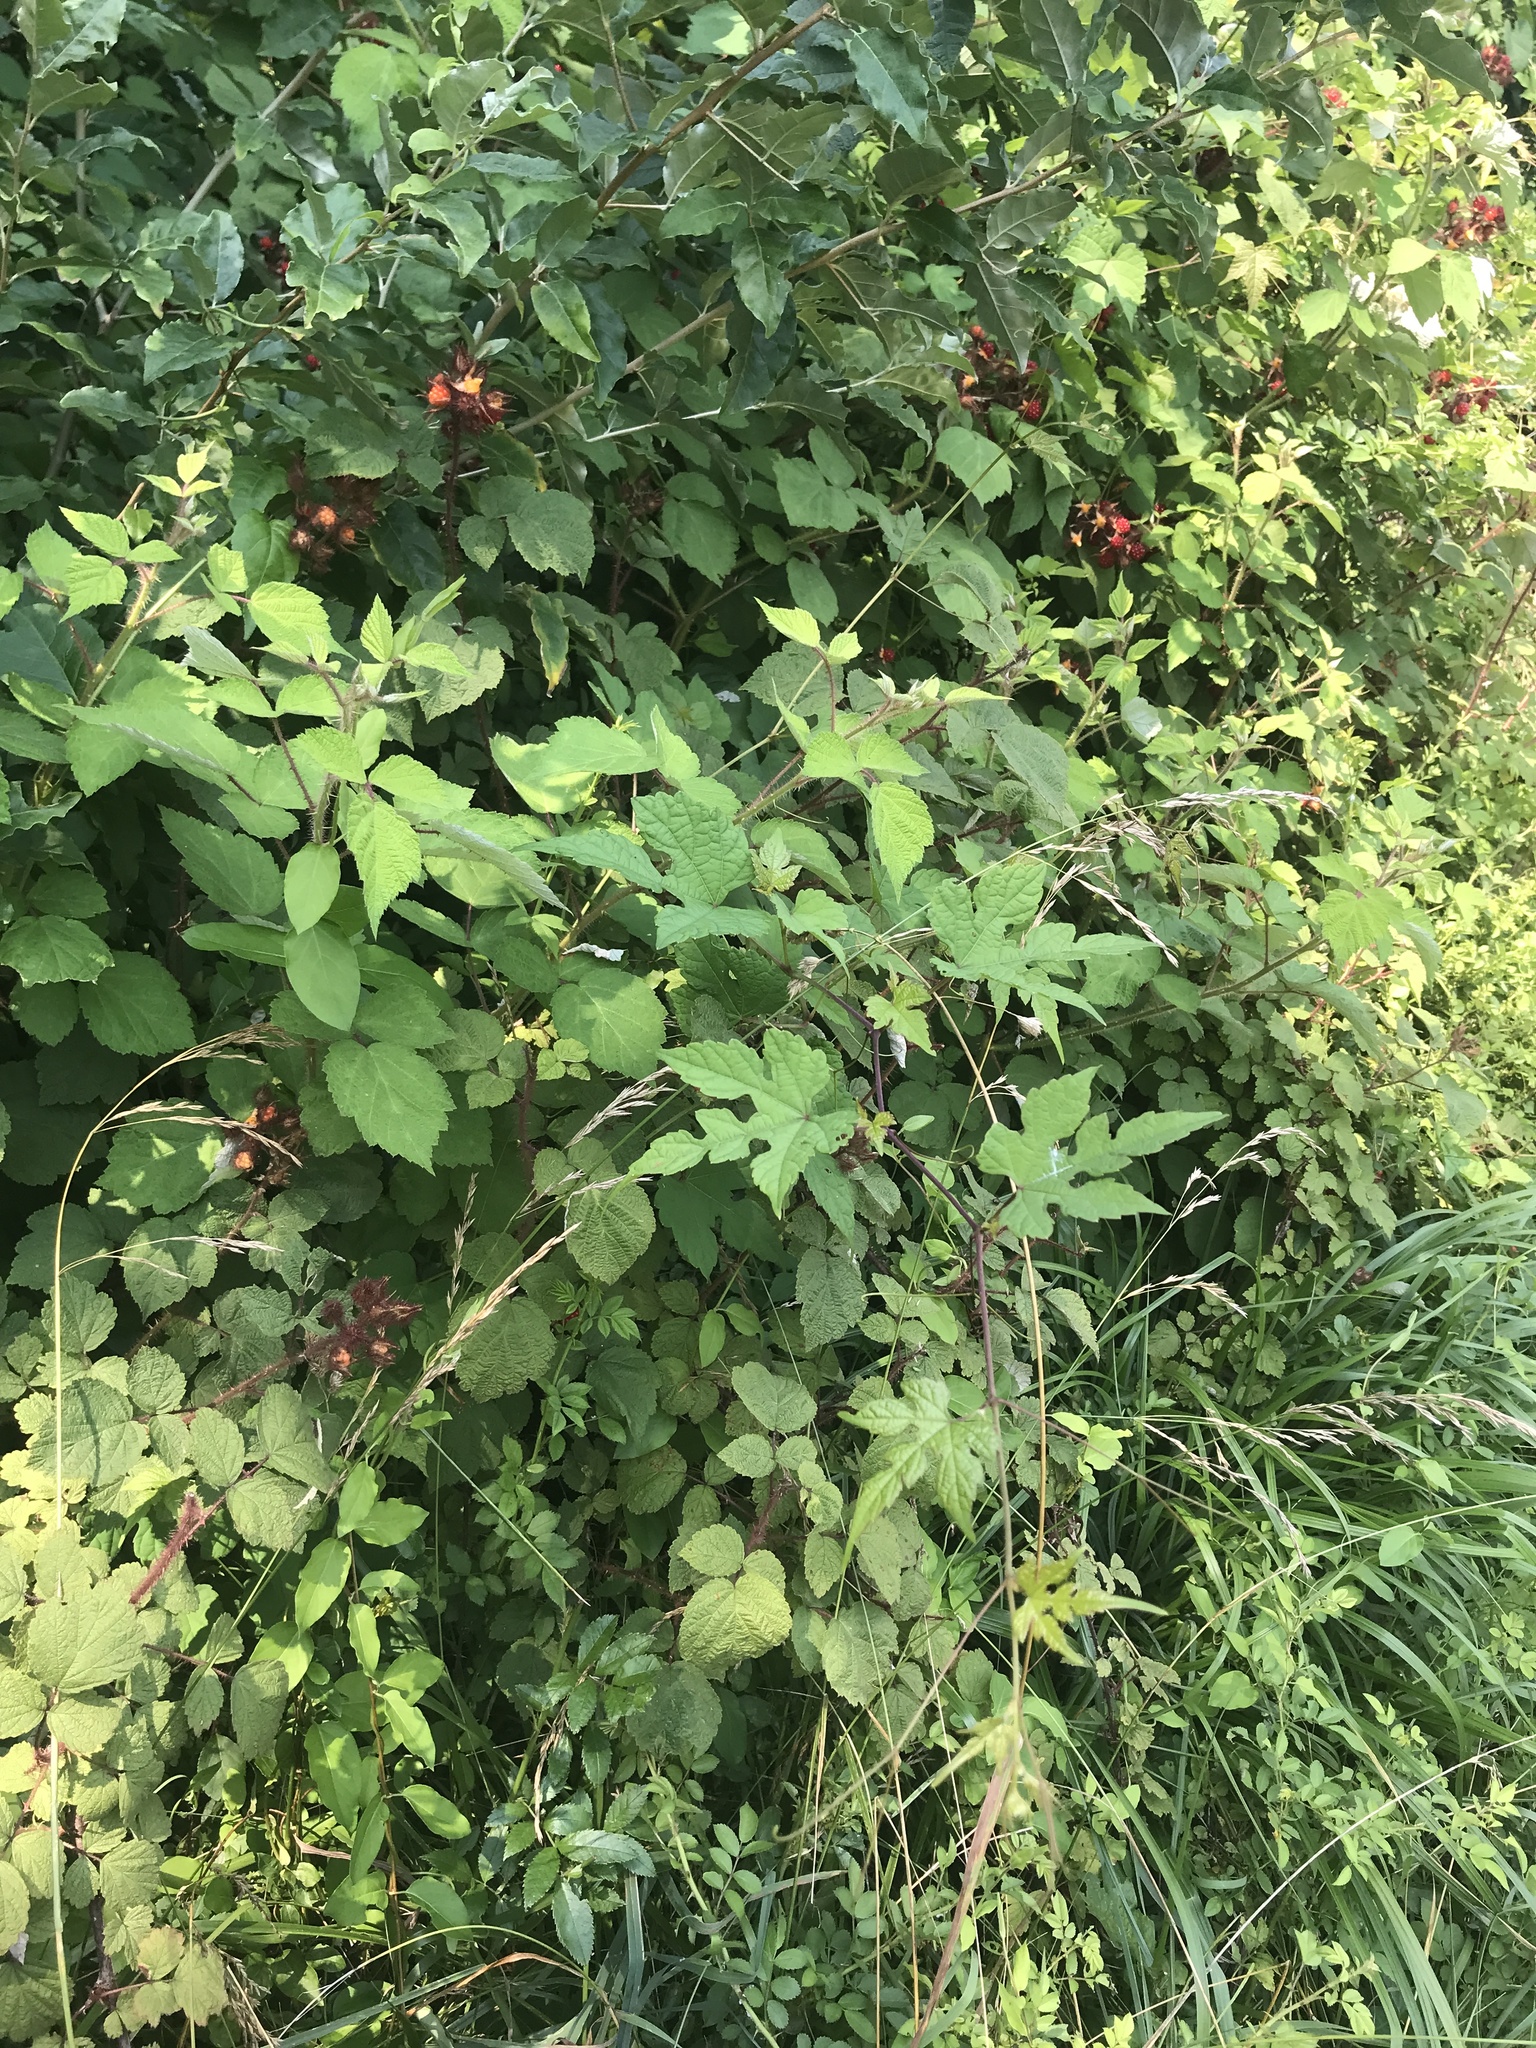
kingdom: Plantae
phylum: Tracheophyta
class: Magnoliopsida
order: Vitales
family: Vitaceae
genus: Ampelopsis
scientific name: Ampelopsis glandulosa
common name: Amur peppervine
